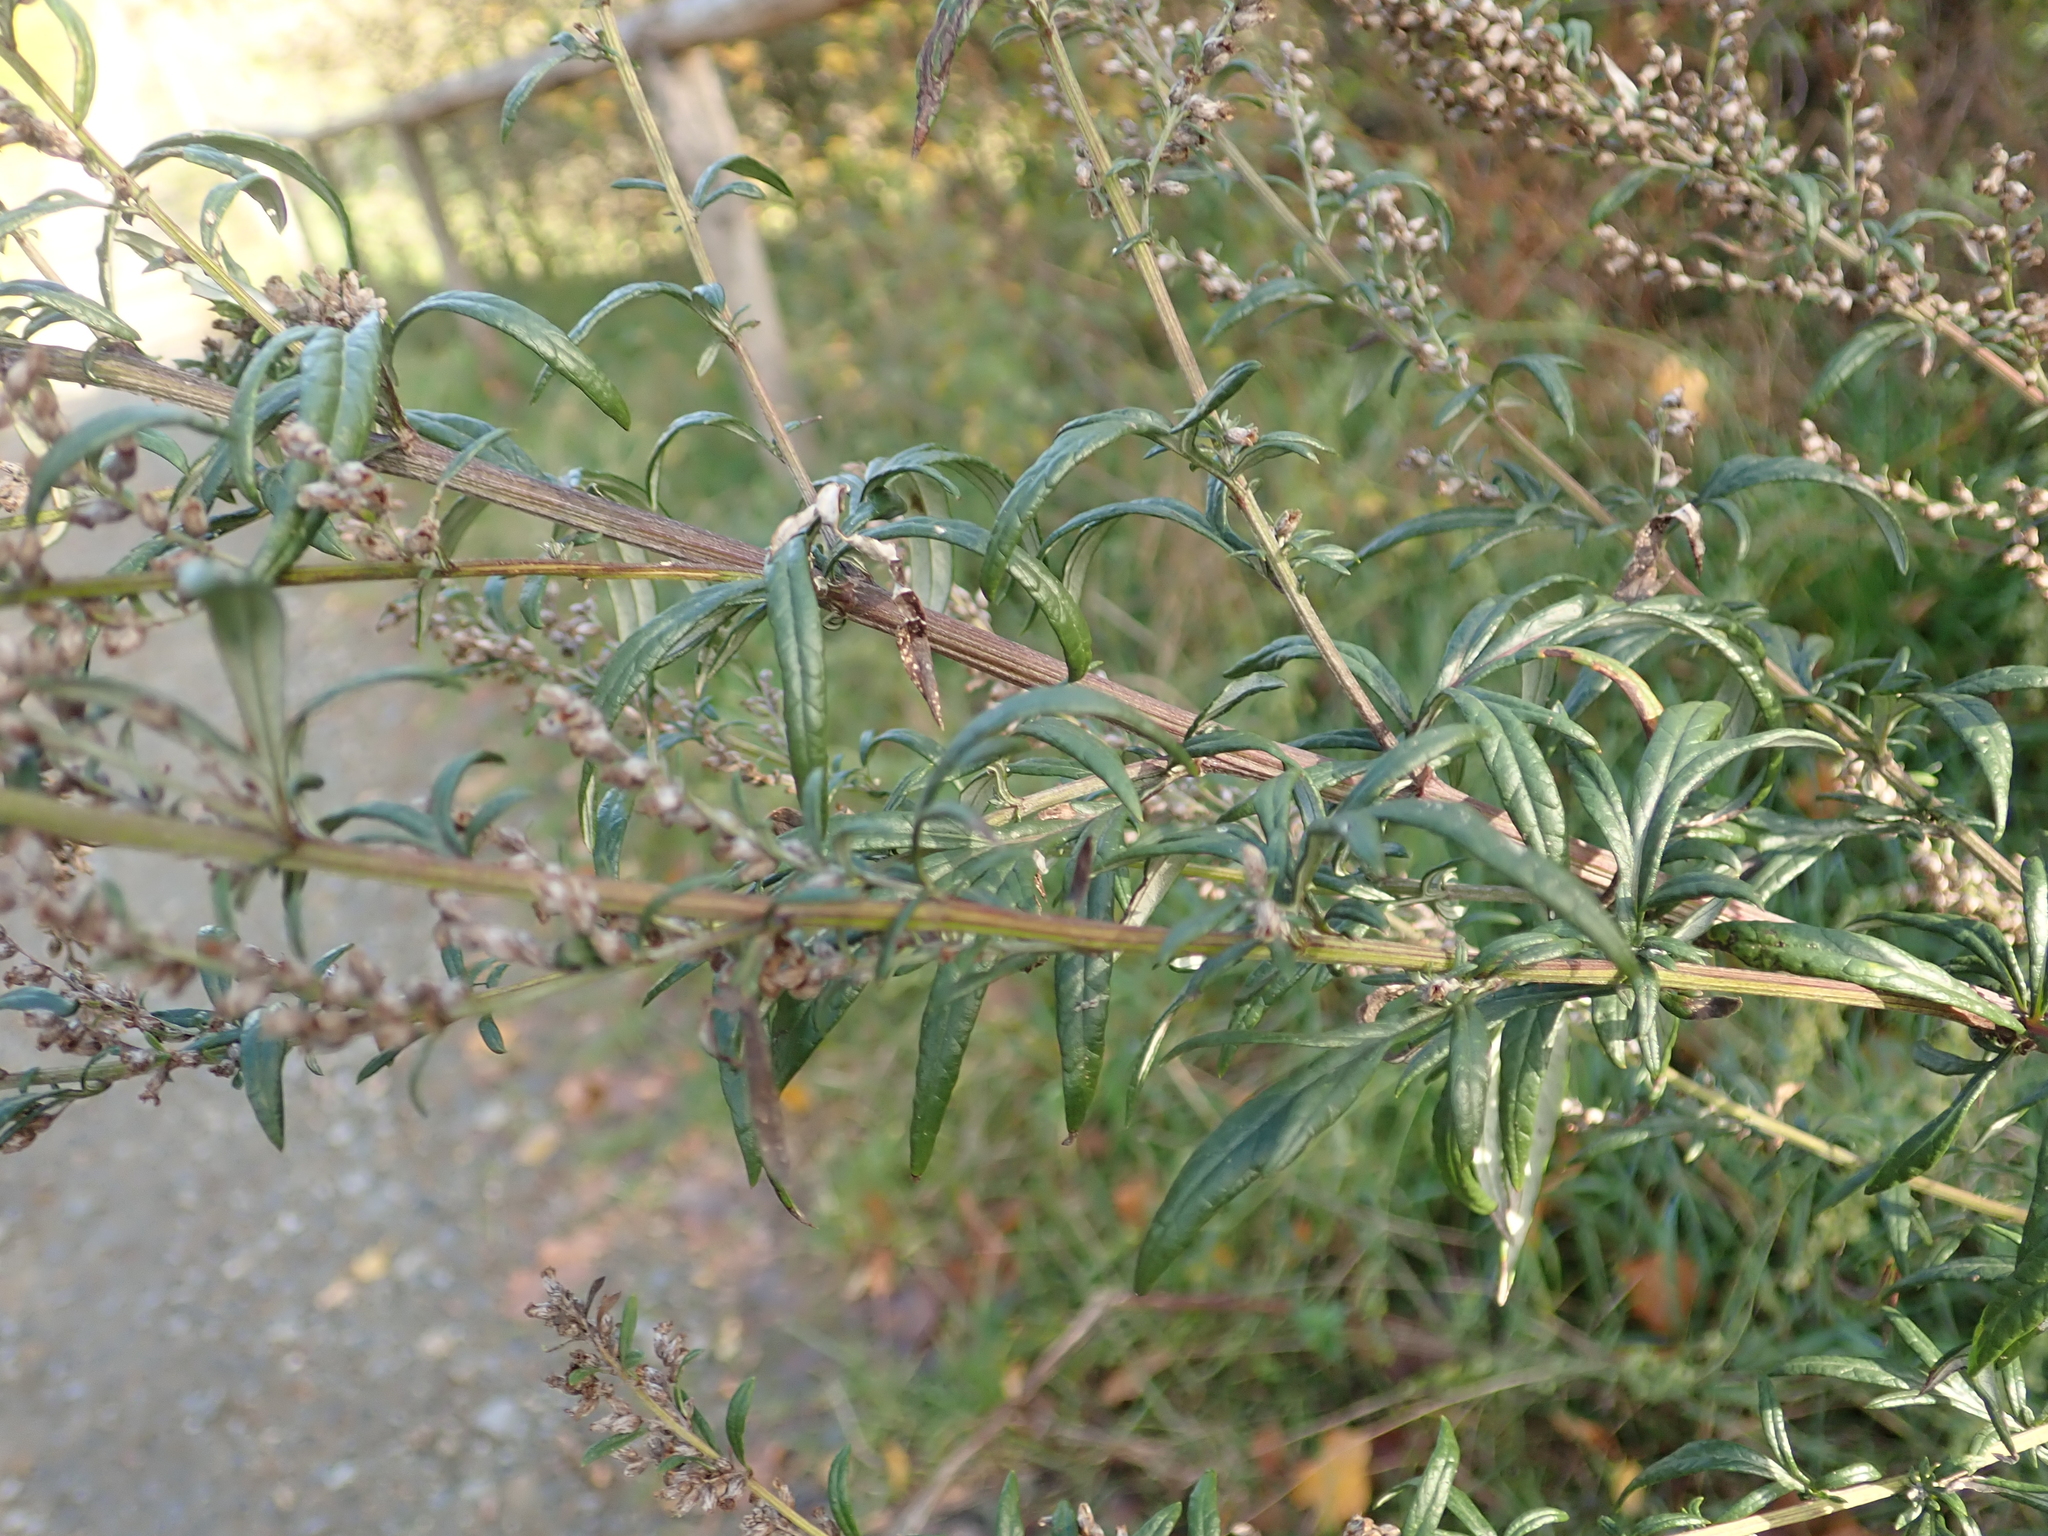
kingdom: Plantae
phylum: Tracheophyta
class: Magnoliopsida
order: Asterales
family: Asteraceae
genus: Artemisia
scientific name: Artemisia vulgaris
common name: Mugwort
